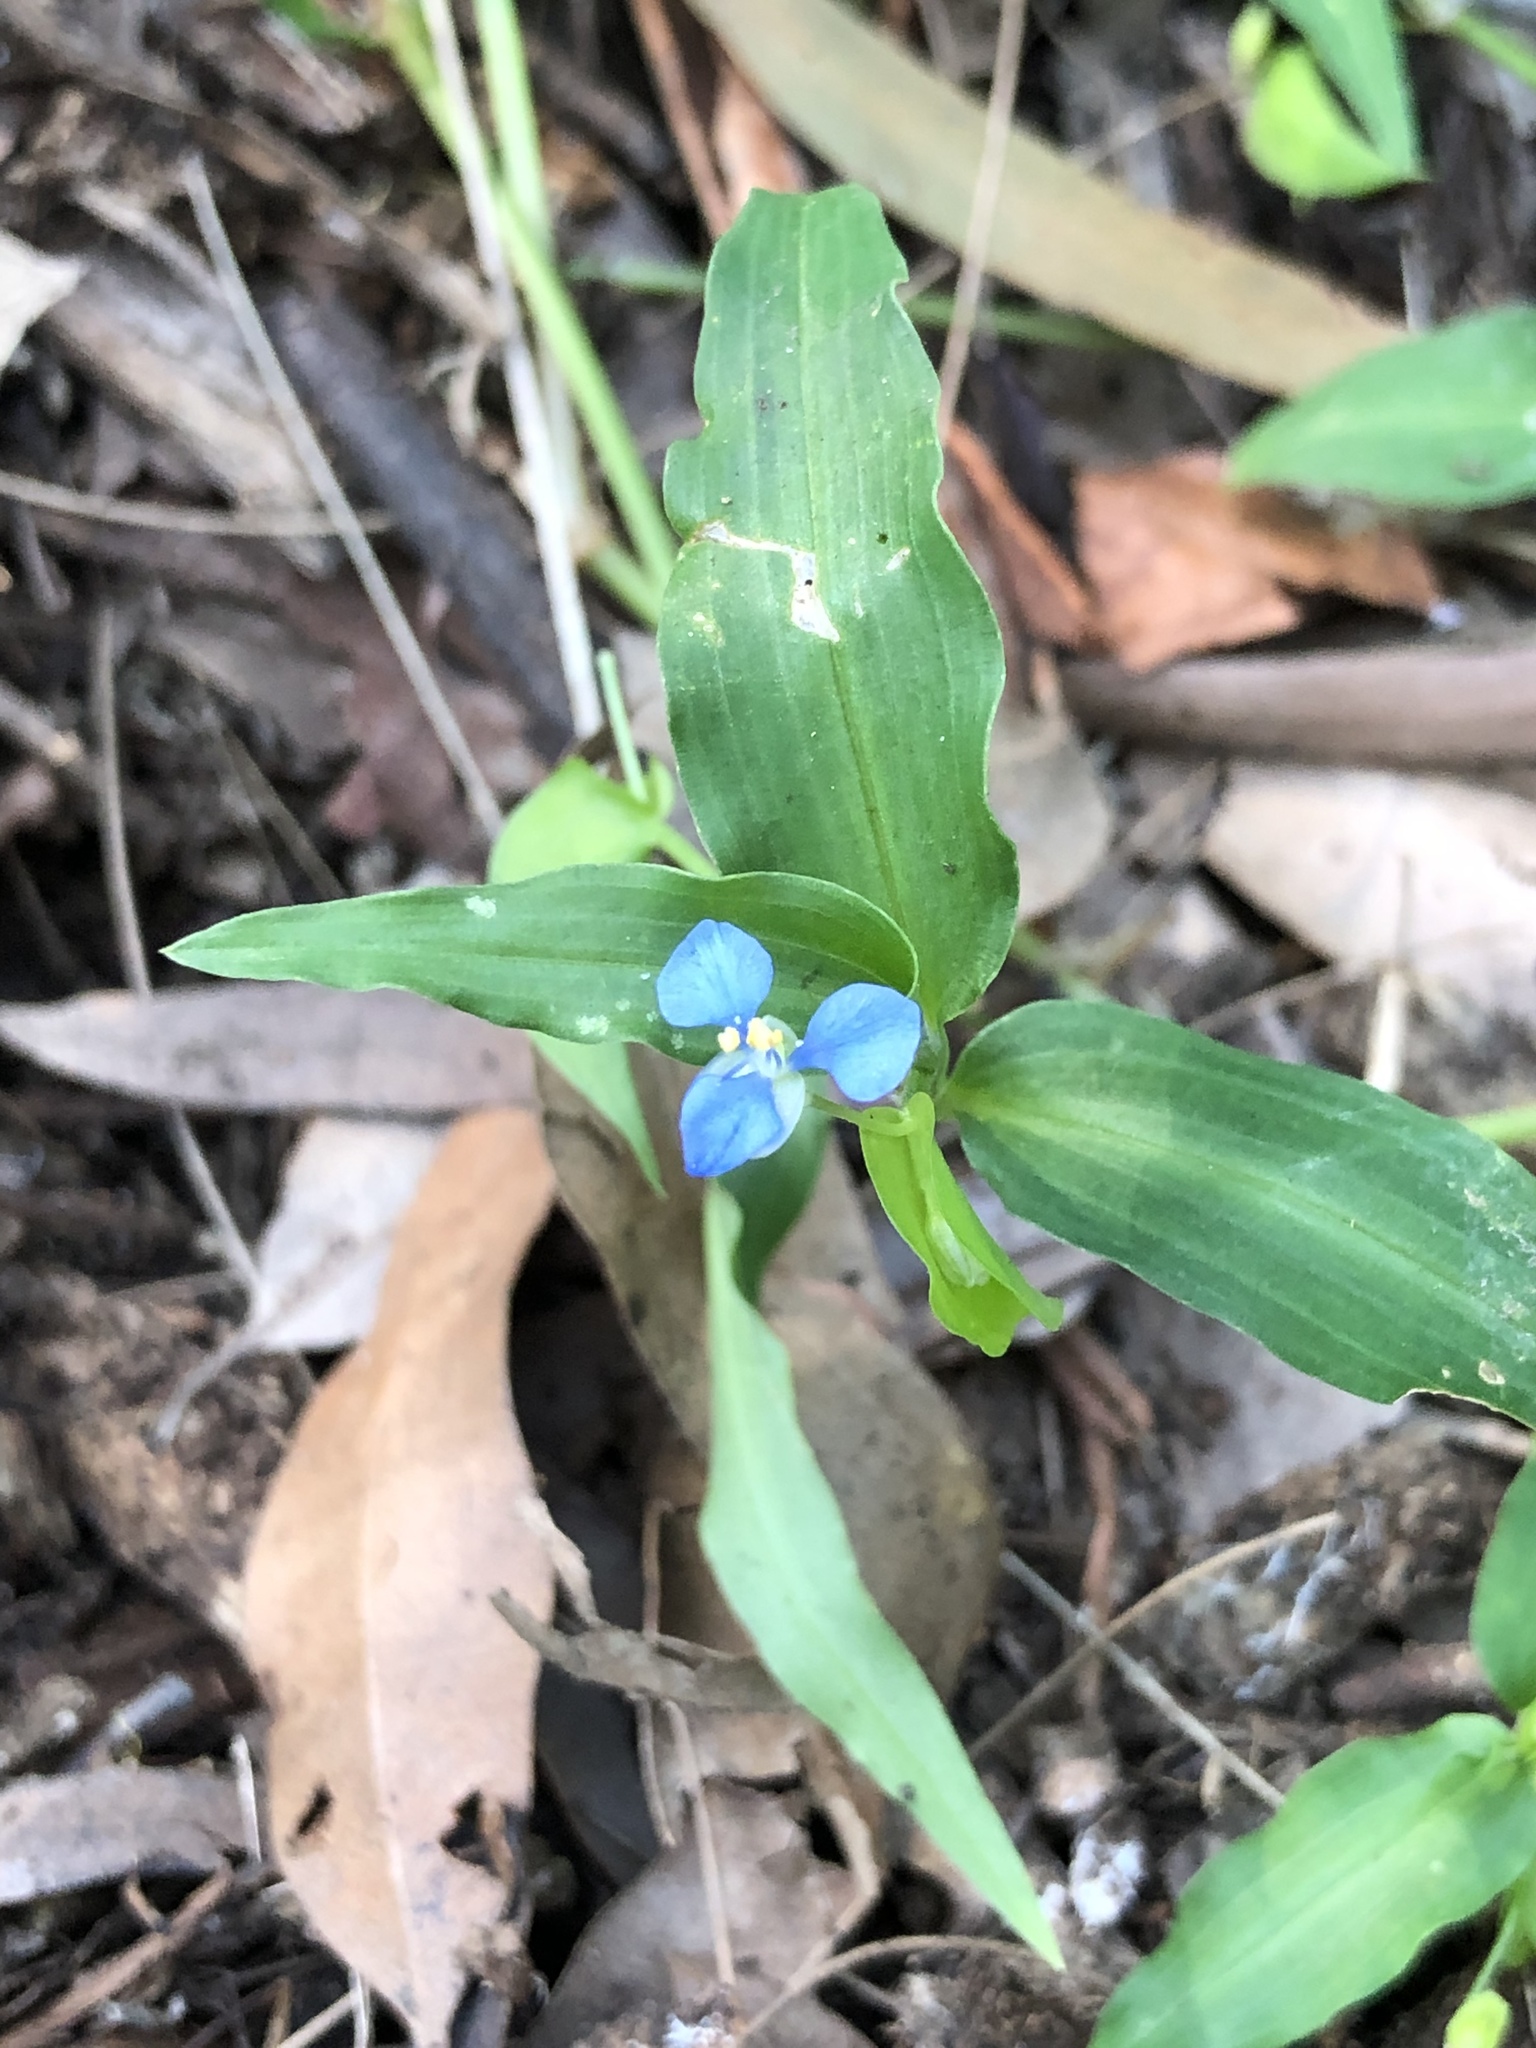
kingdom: Plantae
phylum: Tracheophyta
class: Liliopsida
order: Commelinales
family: Commelinaceae
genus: Commelina
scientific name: Commelina cyanea
